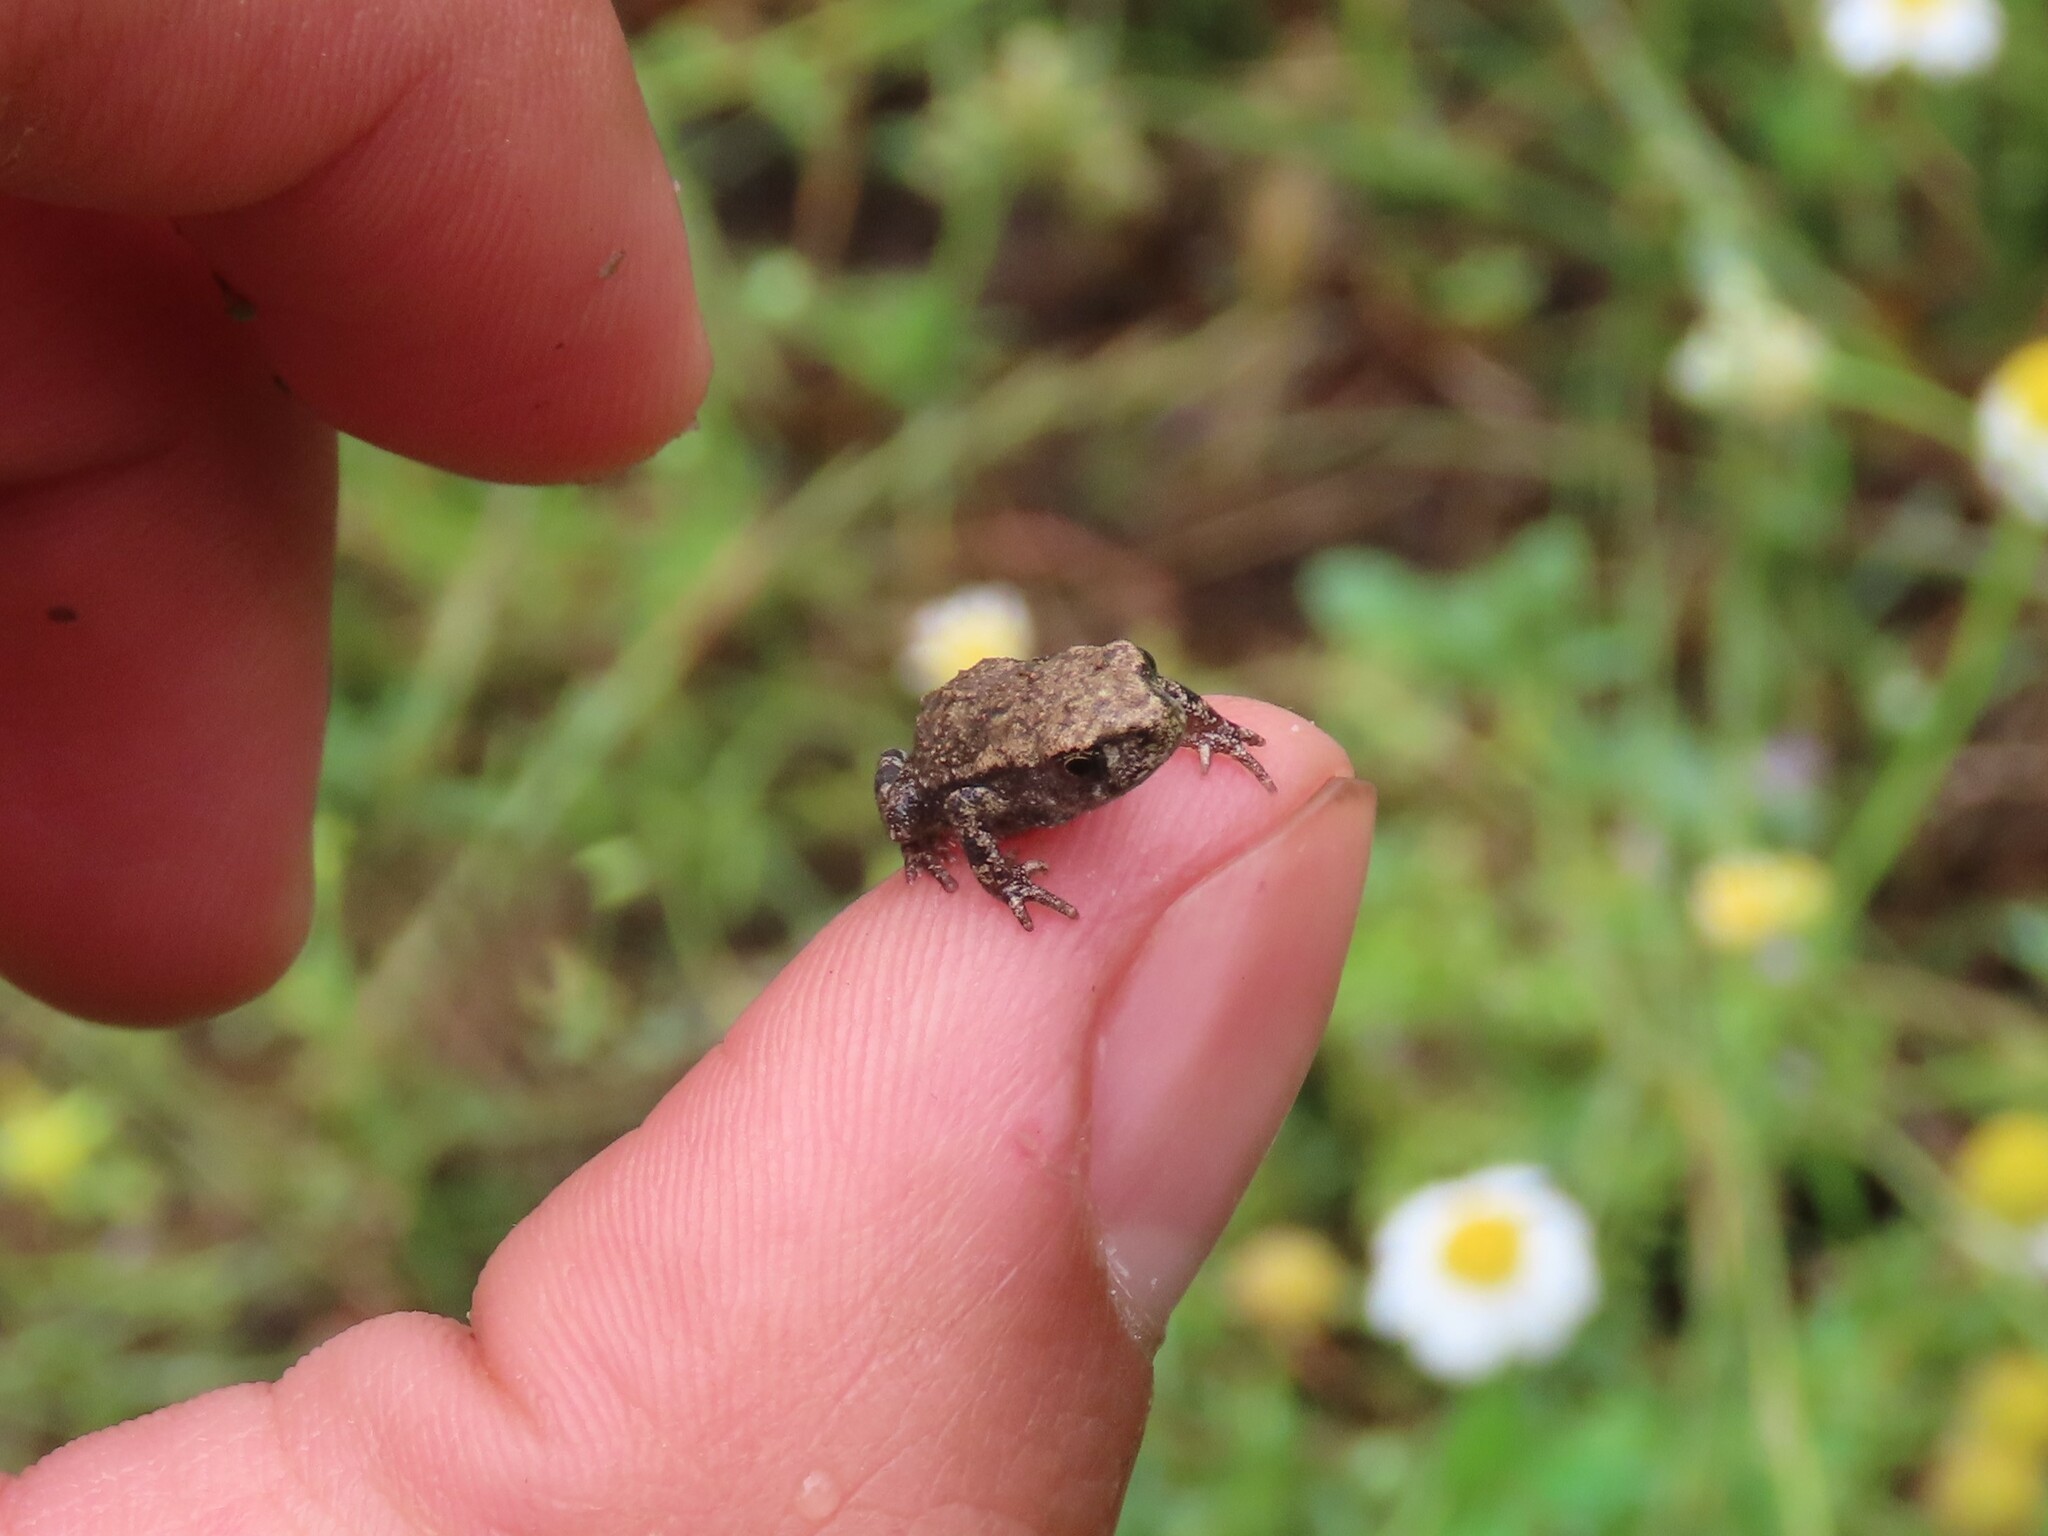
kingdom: Animalia
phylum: Chordata
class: Amphibia
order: Anura
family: Bufonidae
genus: Bufo
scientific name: Bufo spinosus
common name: Western common toad
